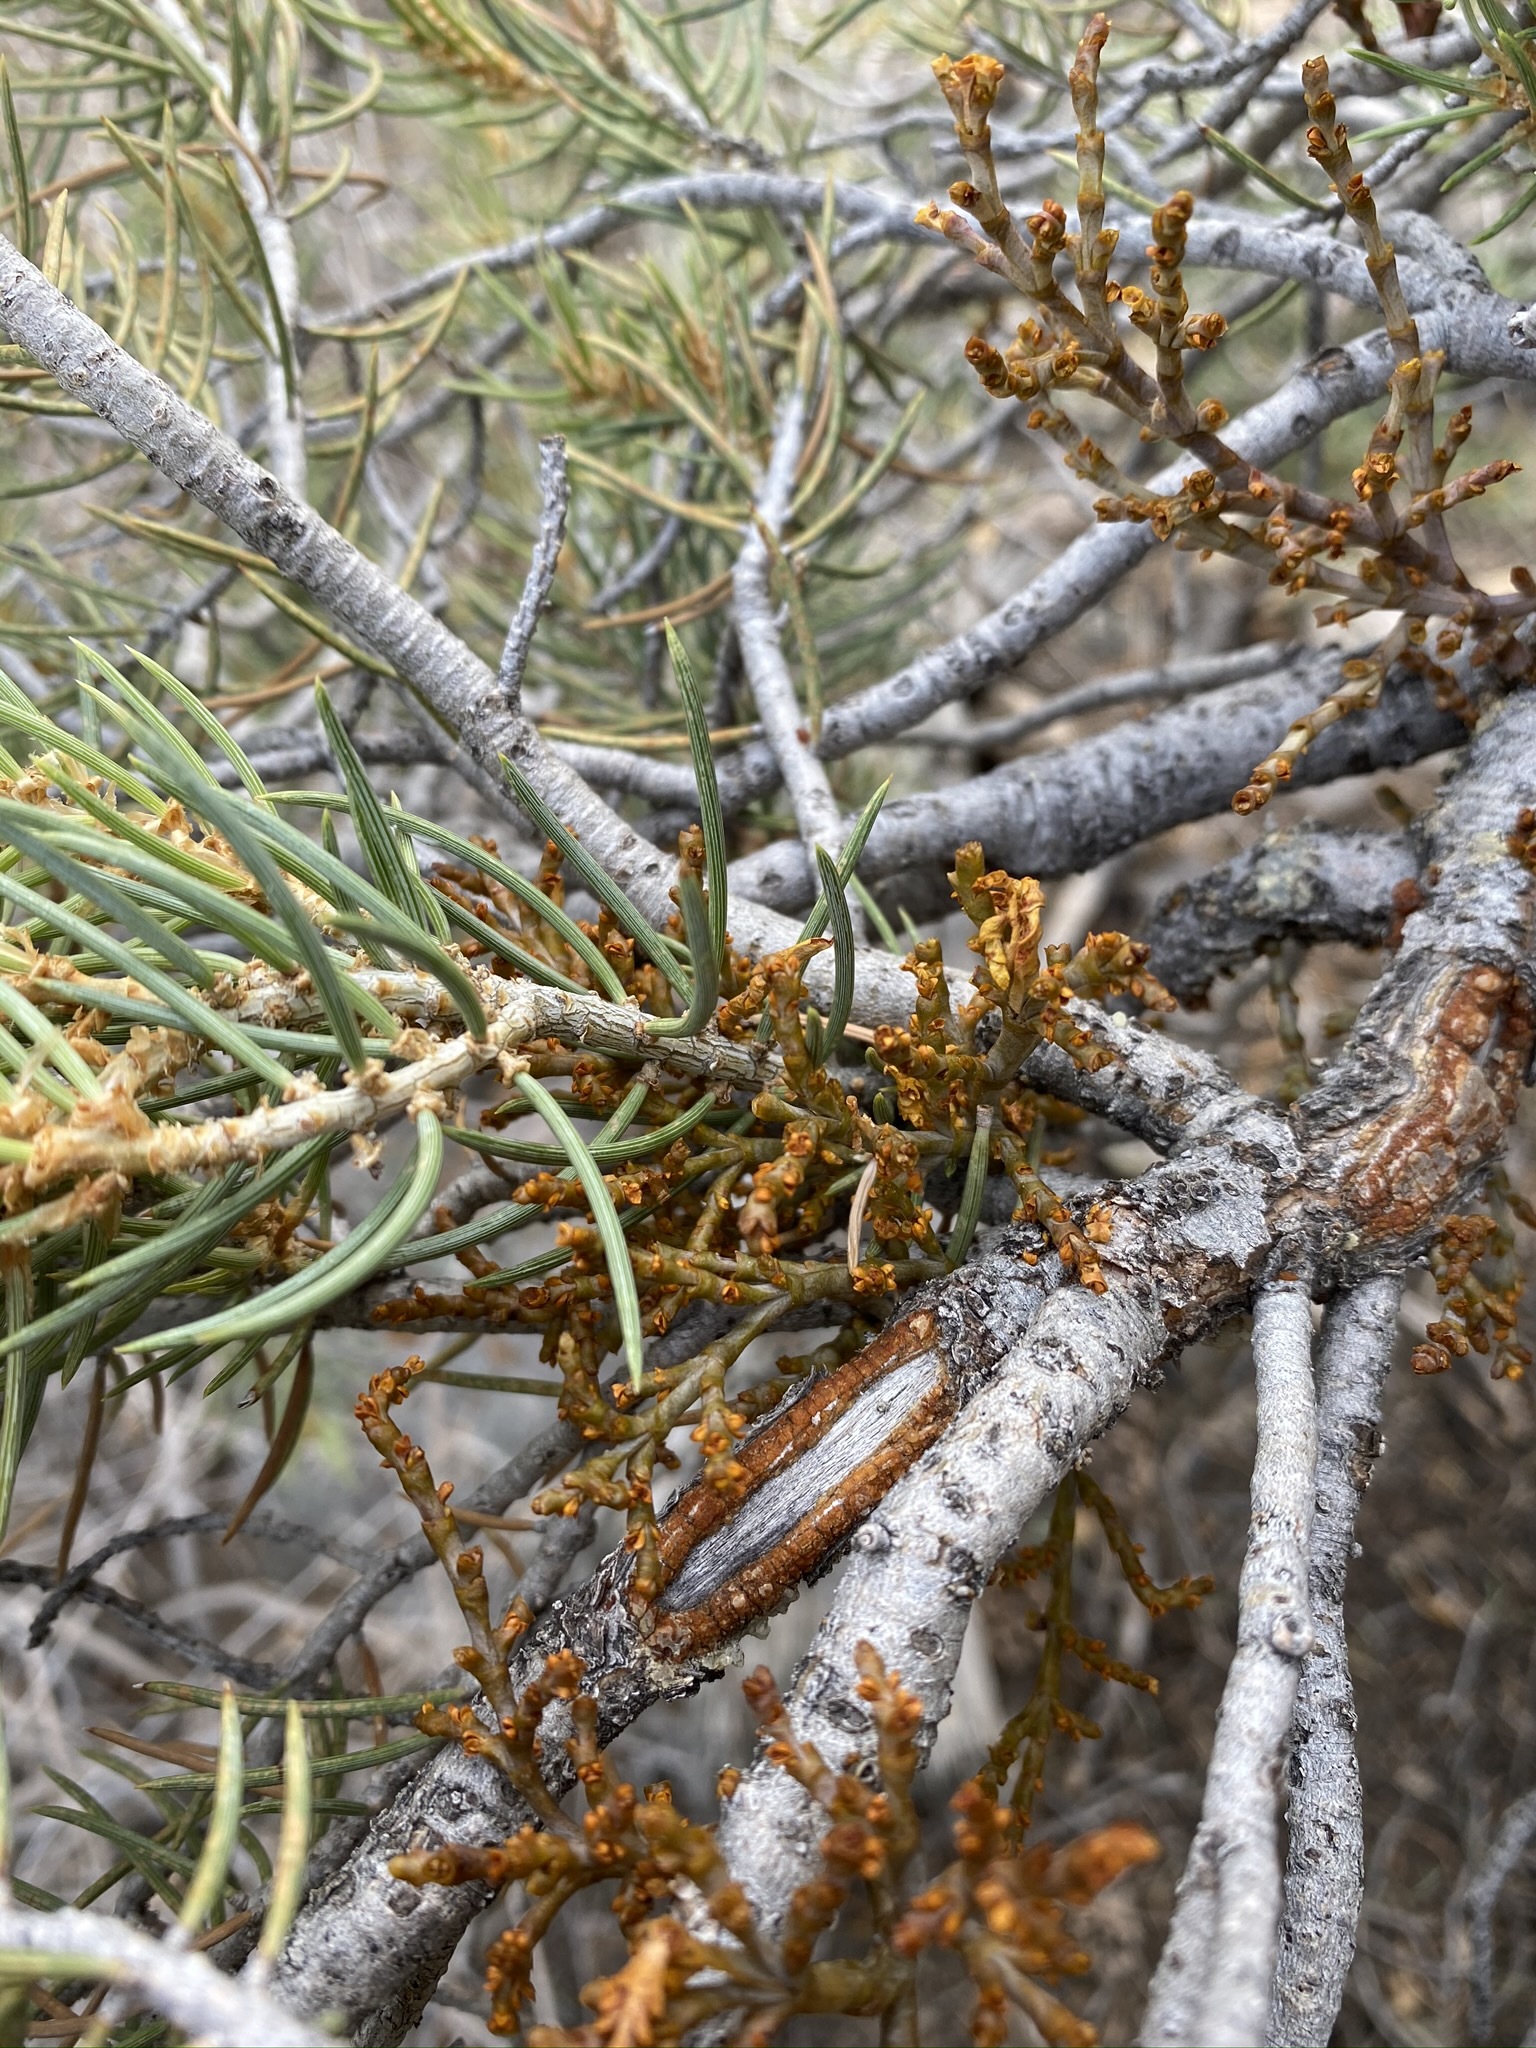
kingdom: Plantae
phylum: Tracheophyta
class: Magnoliopsida
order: Santalales
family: Viscaceae
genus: Arceuthobium
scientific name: Arceuthobium divaricatum
